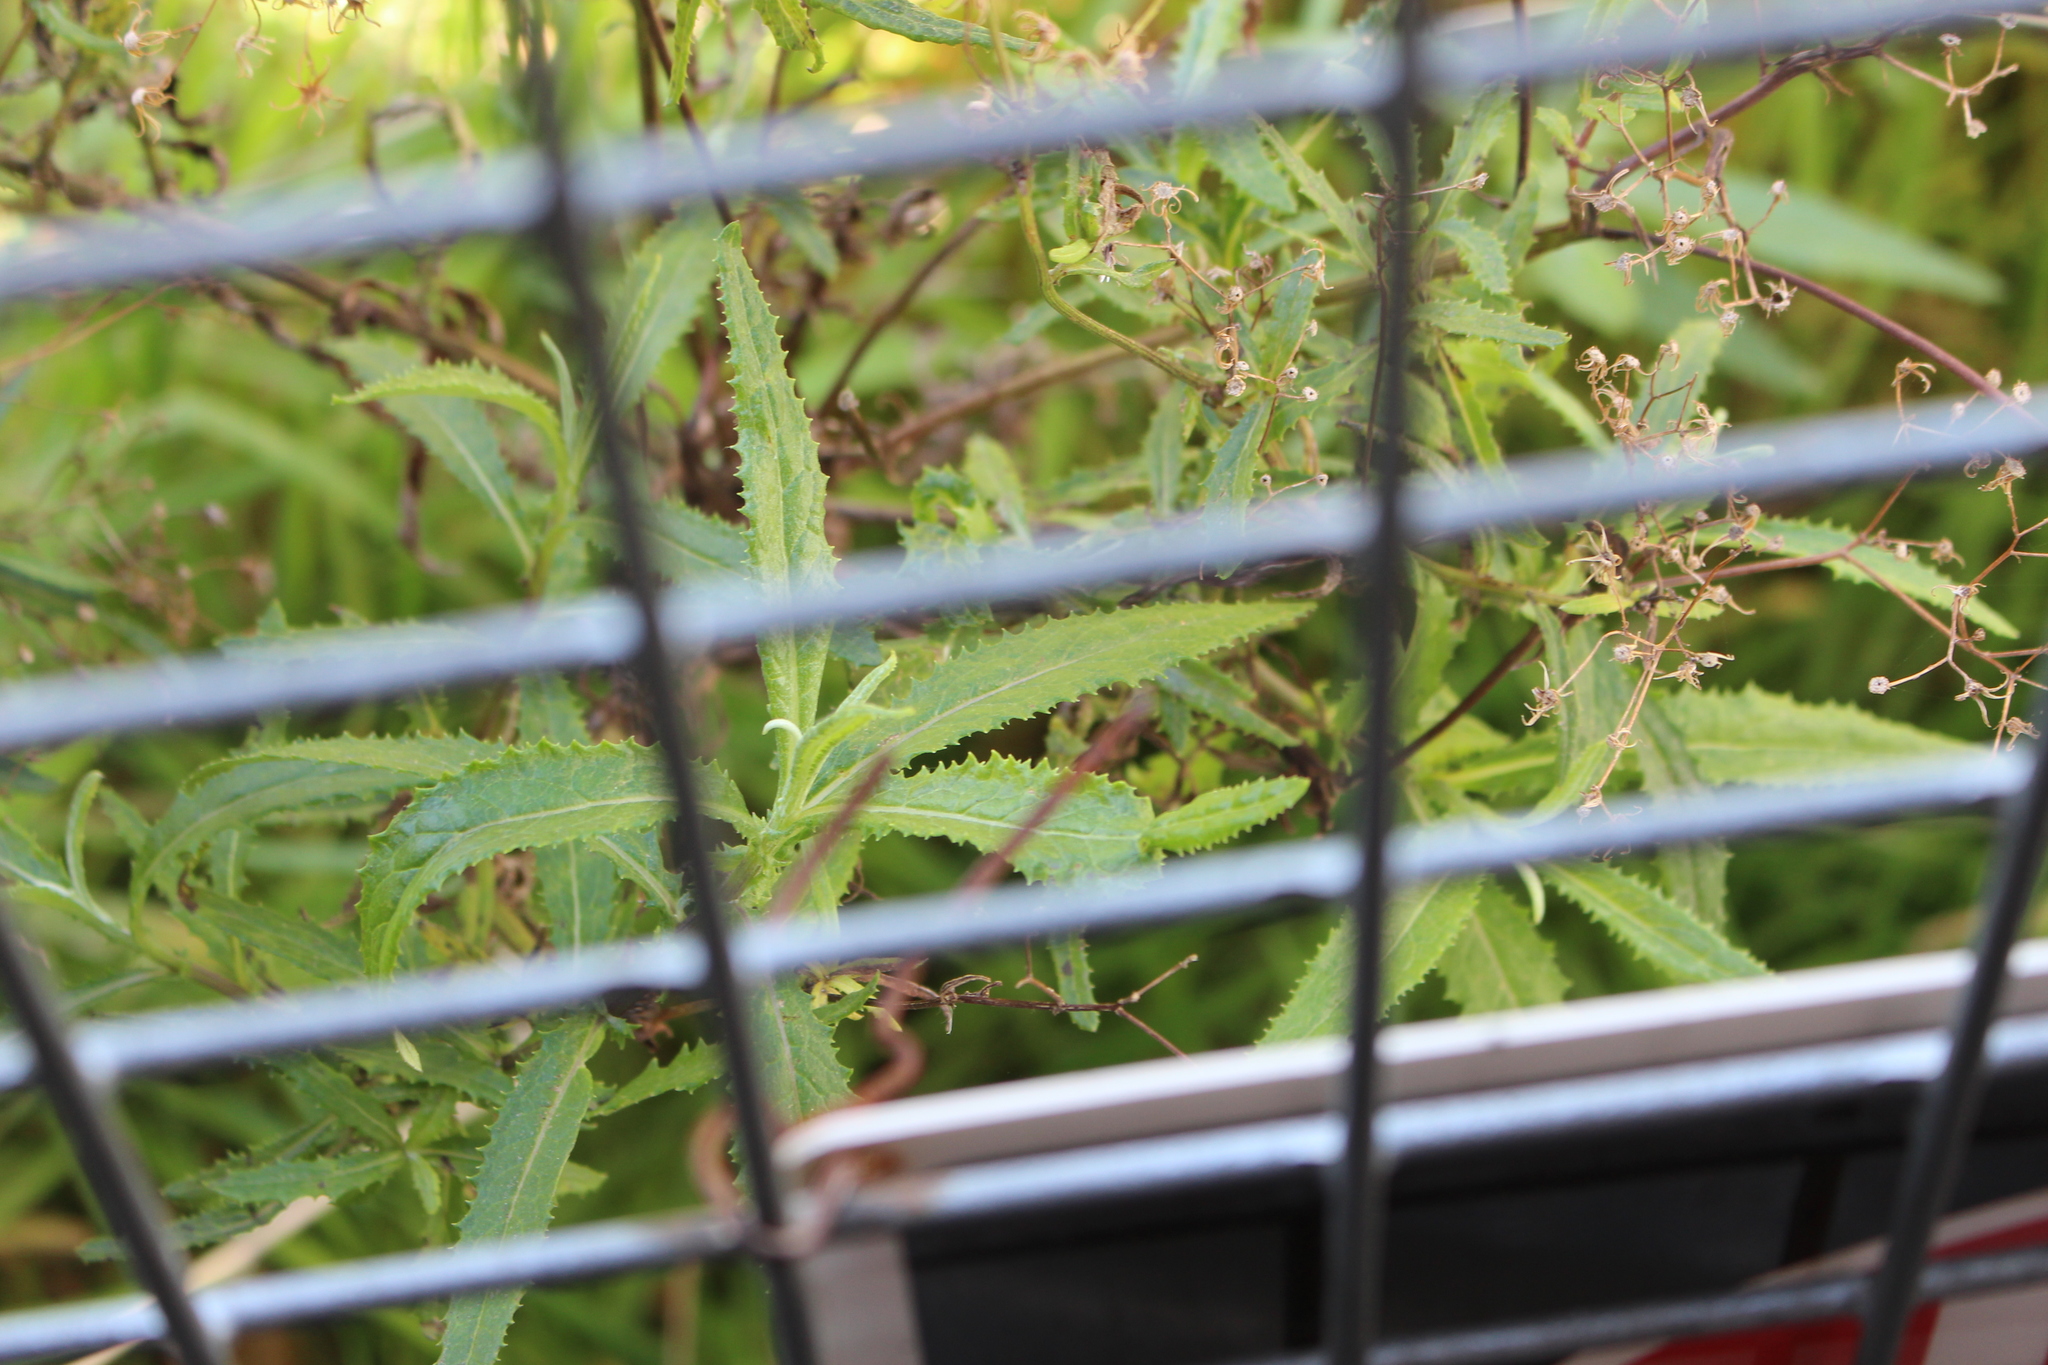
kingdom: Plantae
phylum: Tracheophyta
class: Magnoliopsida
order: Asterales
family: Asteraceae
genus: Senecio
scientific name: Senecio minimus
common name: Toothed fireweed
